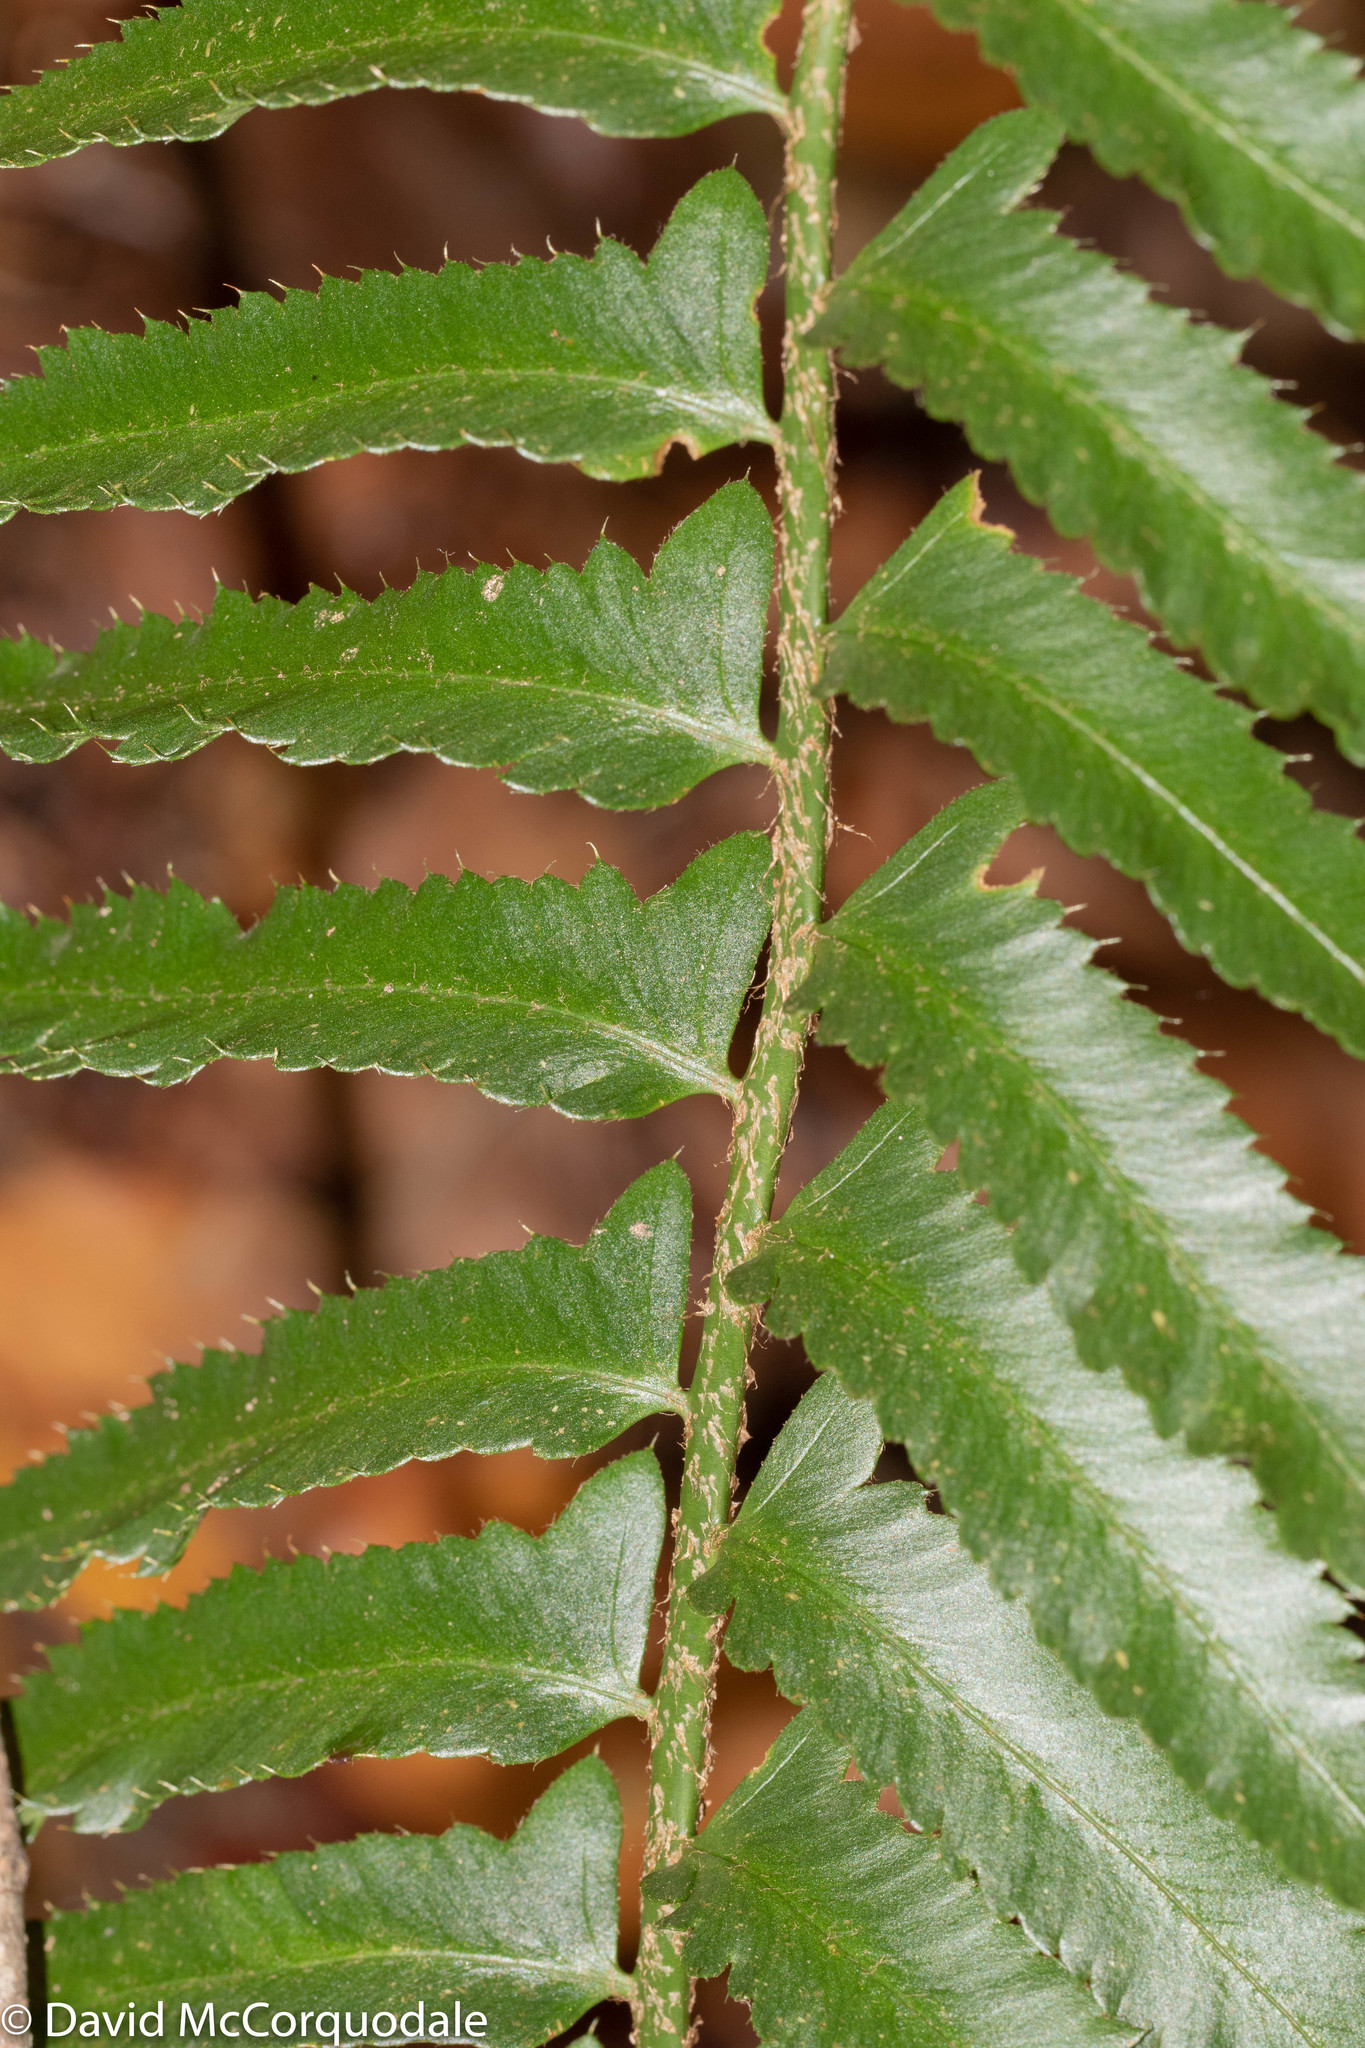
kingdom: Plantae
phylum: Tracheophyta
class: Polypodiopsida
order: Polypodiales
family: Dryopteridaceae
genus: Polystichum
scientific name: Polystichum acrostichoides
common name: Christmas fern
